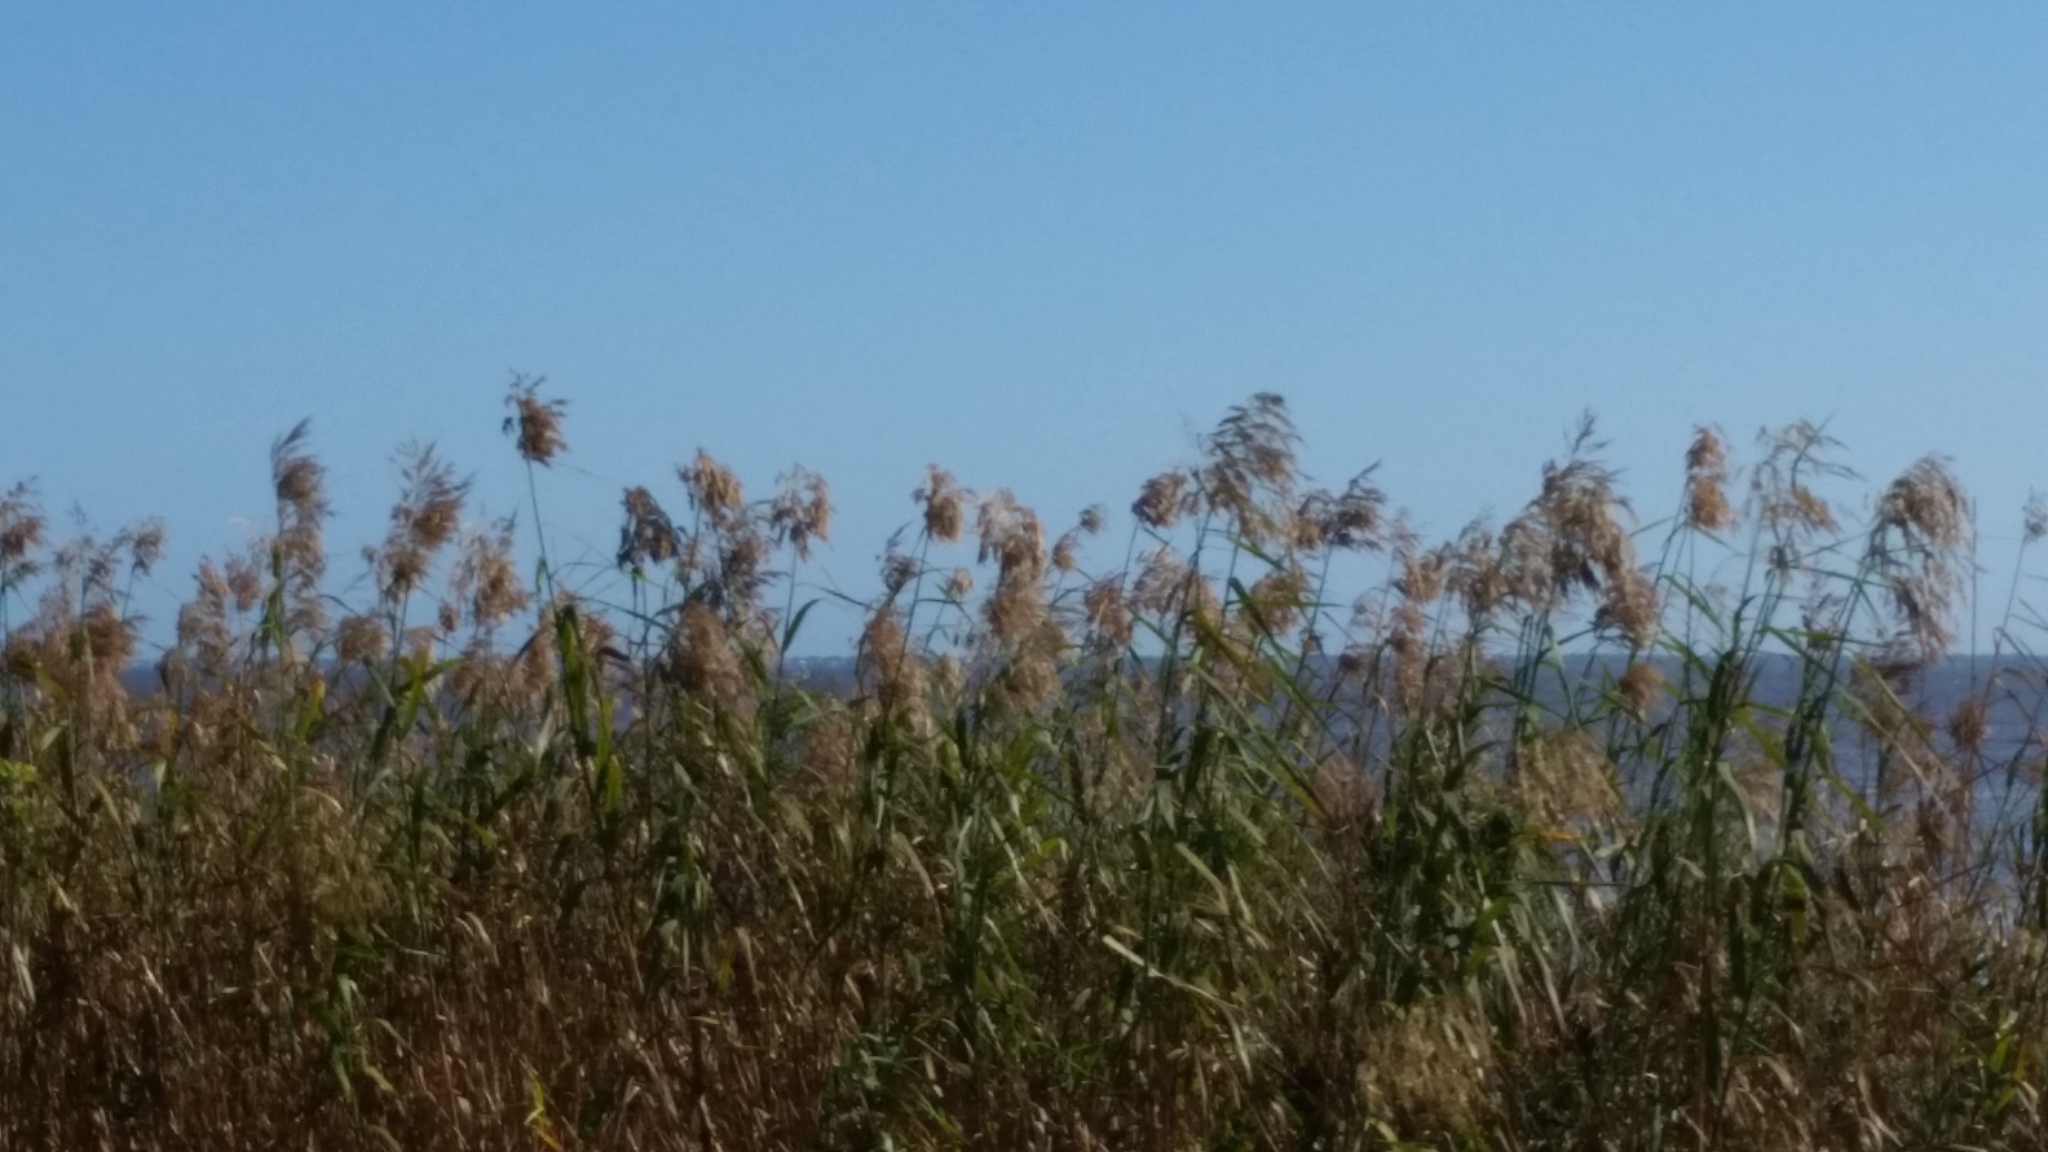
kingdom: Plantae
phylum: Tracheophyta
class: Liliopsida
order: Poales
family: Poaceae
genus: Phragmites
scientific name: Phragmites australis
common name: Common reed
